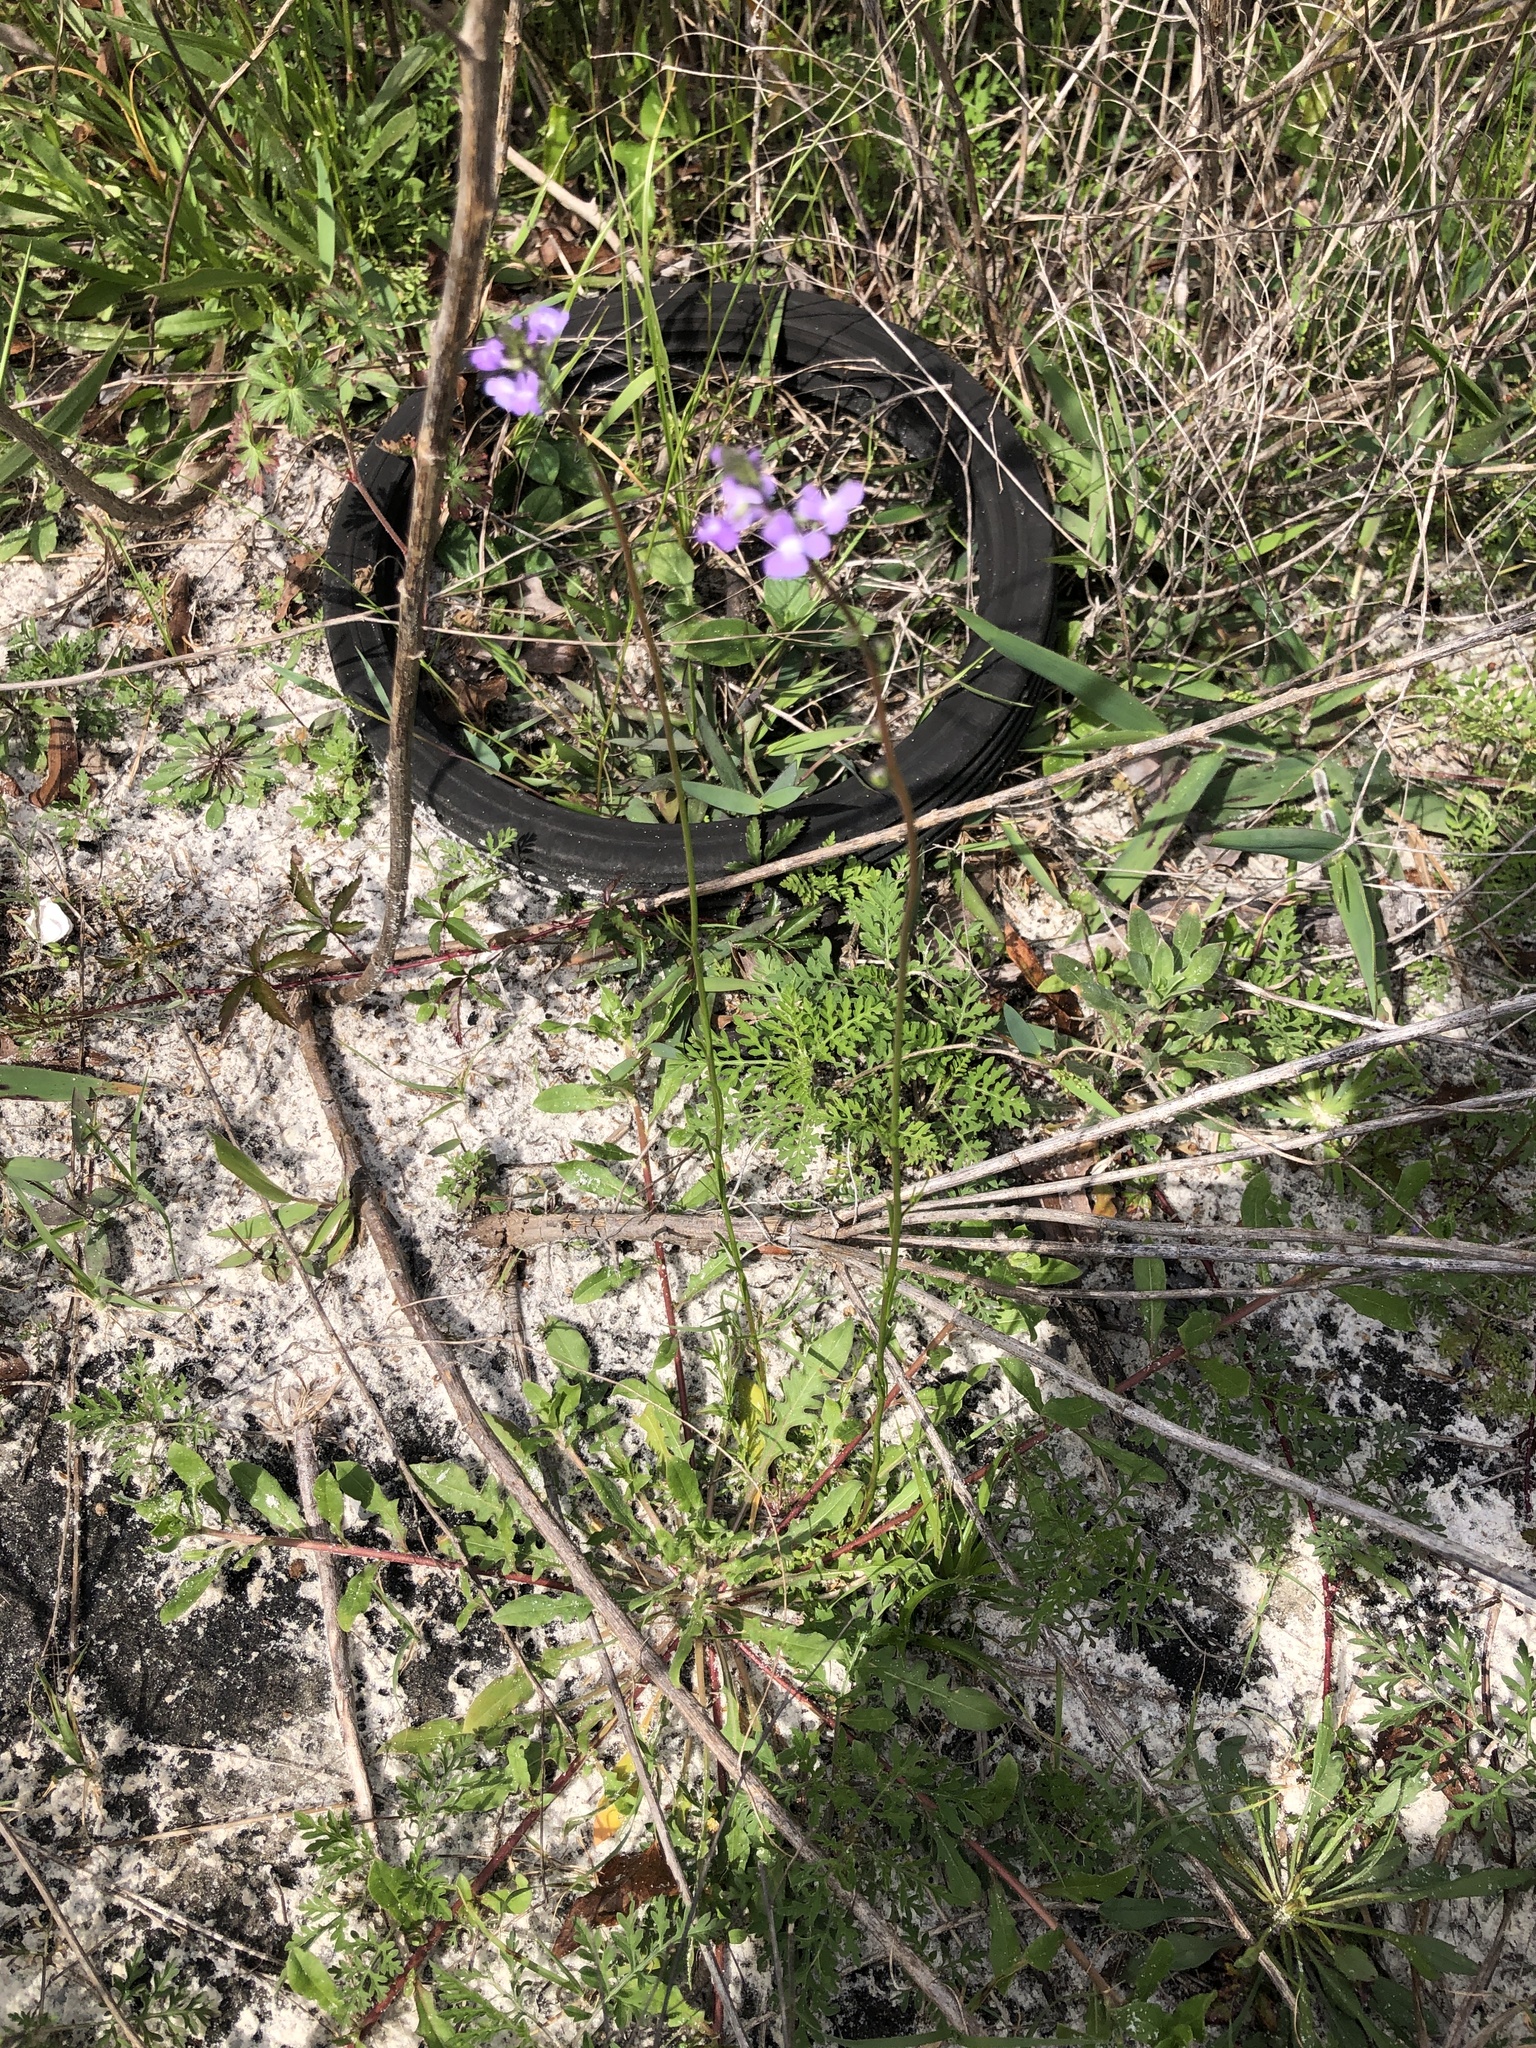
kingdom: Plantae
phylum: Tracheophyta
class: Magnoliopsida
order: Lamiales
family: Plantaginaceae
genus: Nuttallanthus
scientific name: Nuttallanthus canadensis
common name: Blue toadflax
